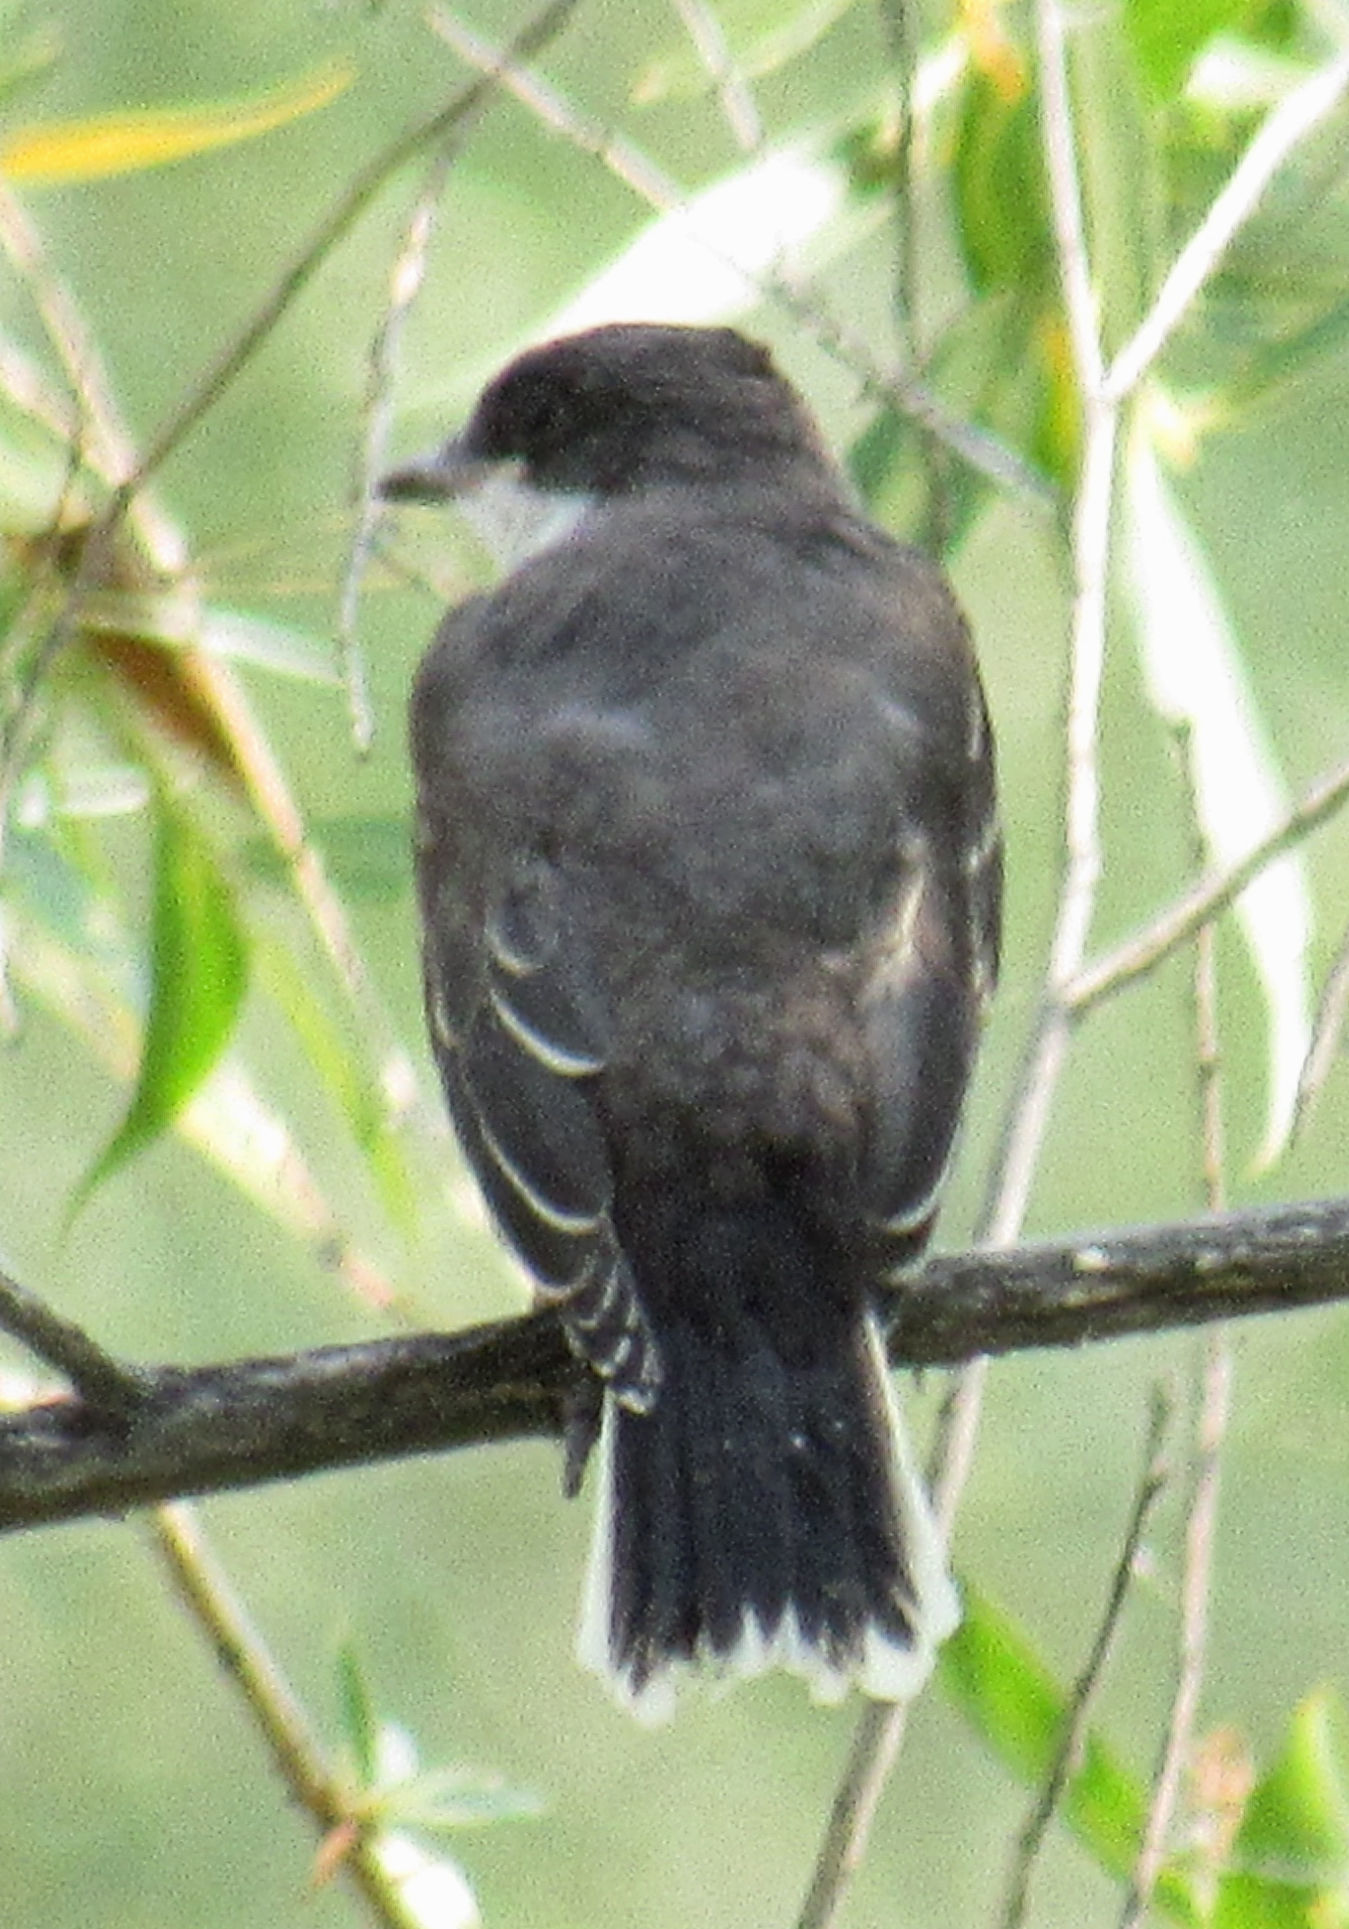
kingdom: Animalia
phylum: Chordata
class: Aves
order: Passeriformes
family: Tyrannidae
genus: Tyrannus
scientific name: Tyrannus tyrannus
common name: Eastern kingbird
